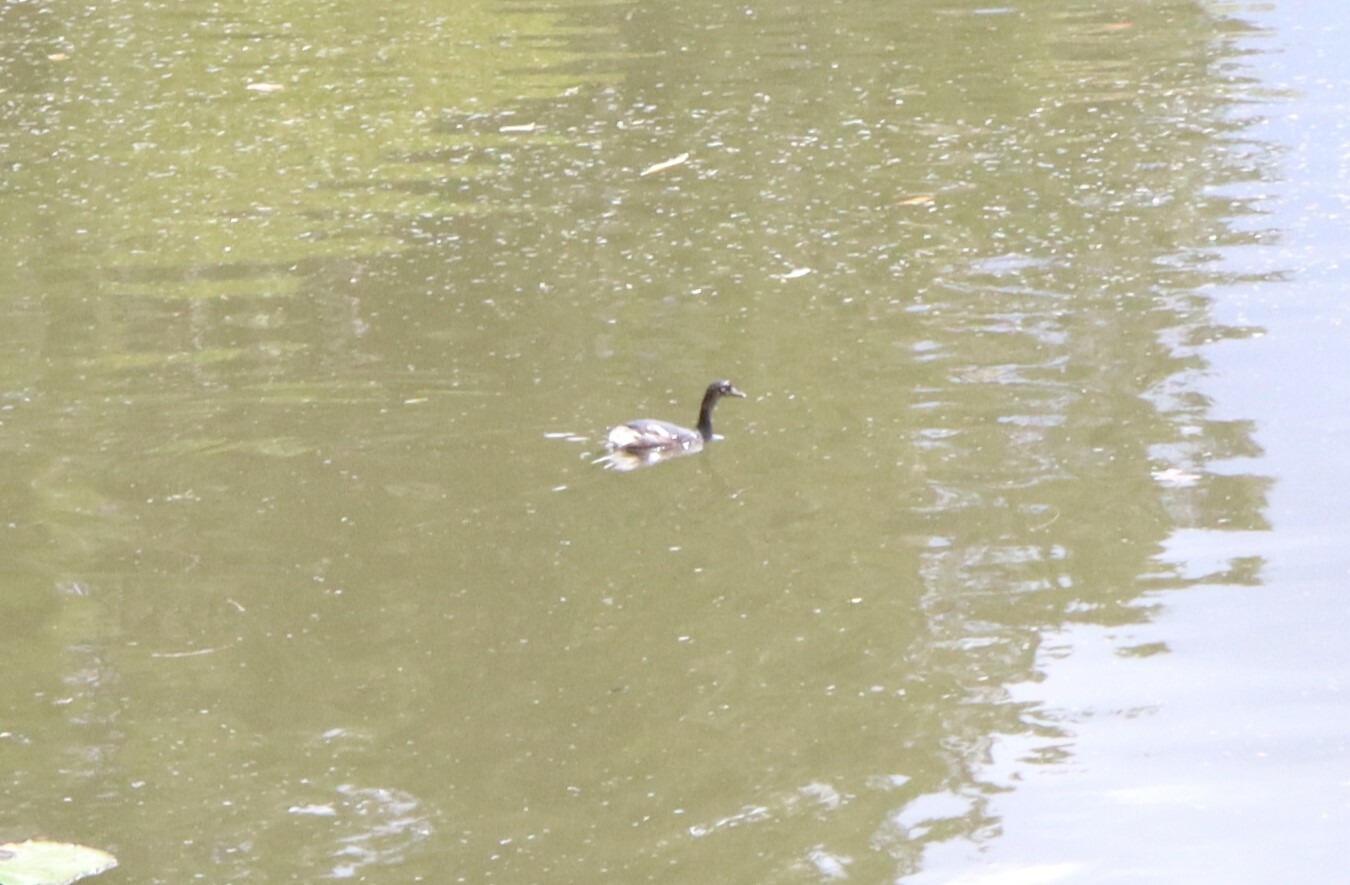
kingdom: Animalia
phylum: Chordata
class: Aves
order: Podicipediformes
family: Podicipedidae
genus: Tachybaptus
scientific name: Tachybaptus novaehollandiae
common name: Australasian grebe
